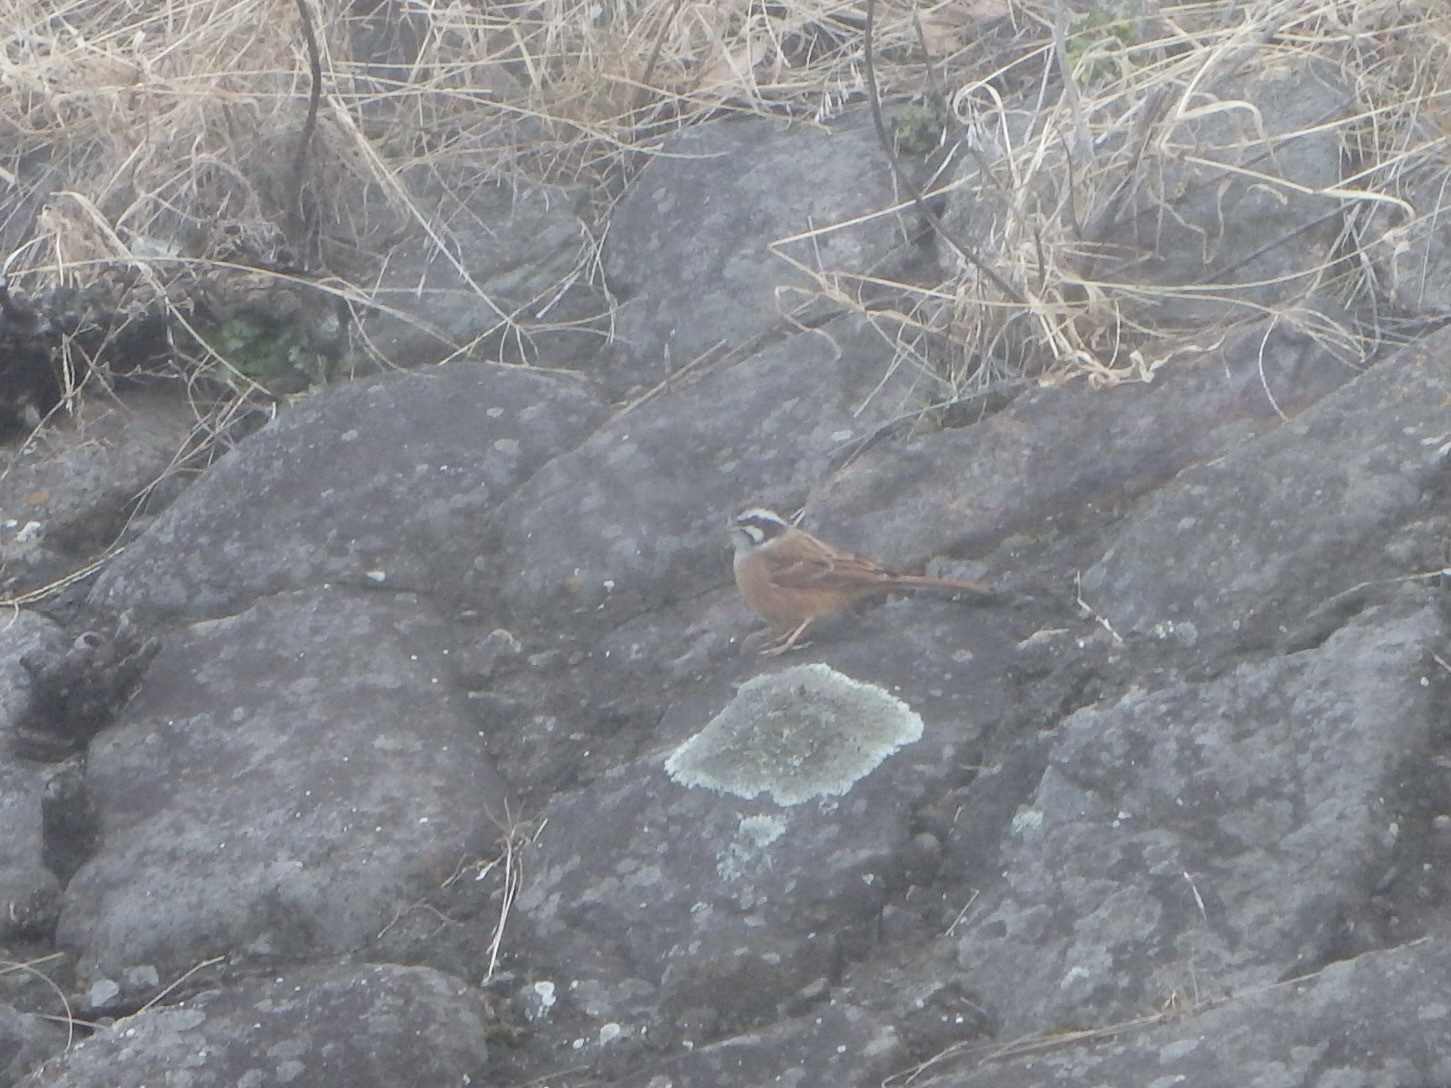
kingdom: Animalia
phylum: Chordata
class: Aves
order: Passeriformes
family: Emberizidae
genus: Emberiza
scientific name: Emberiza cioides
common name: Meadow bunting
